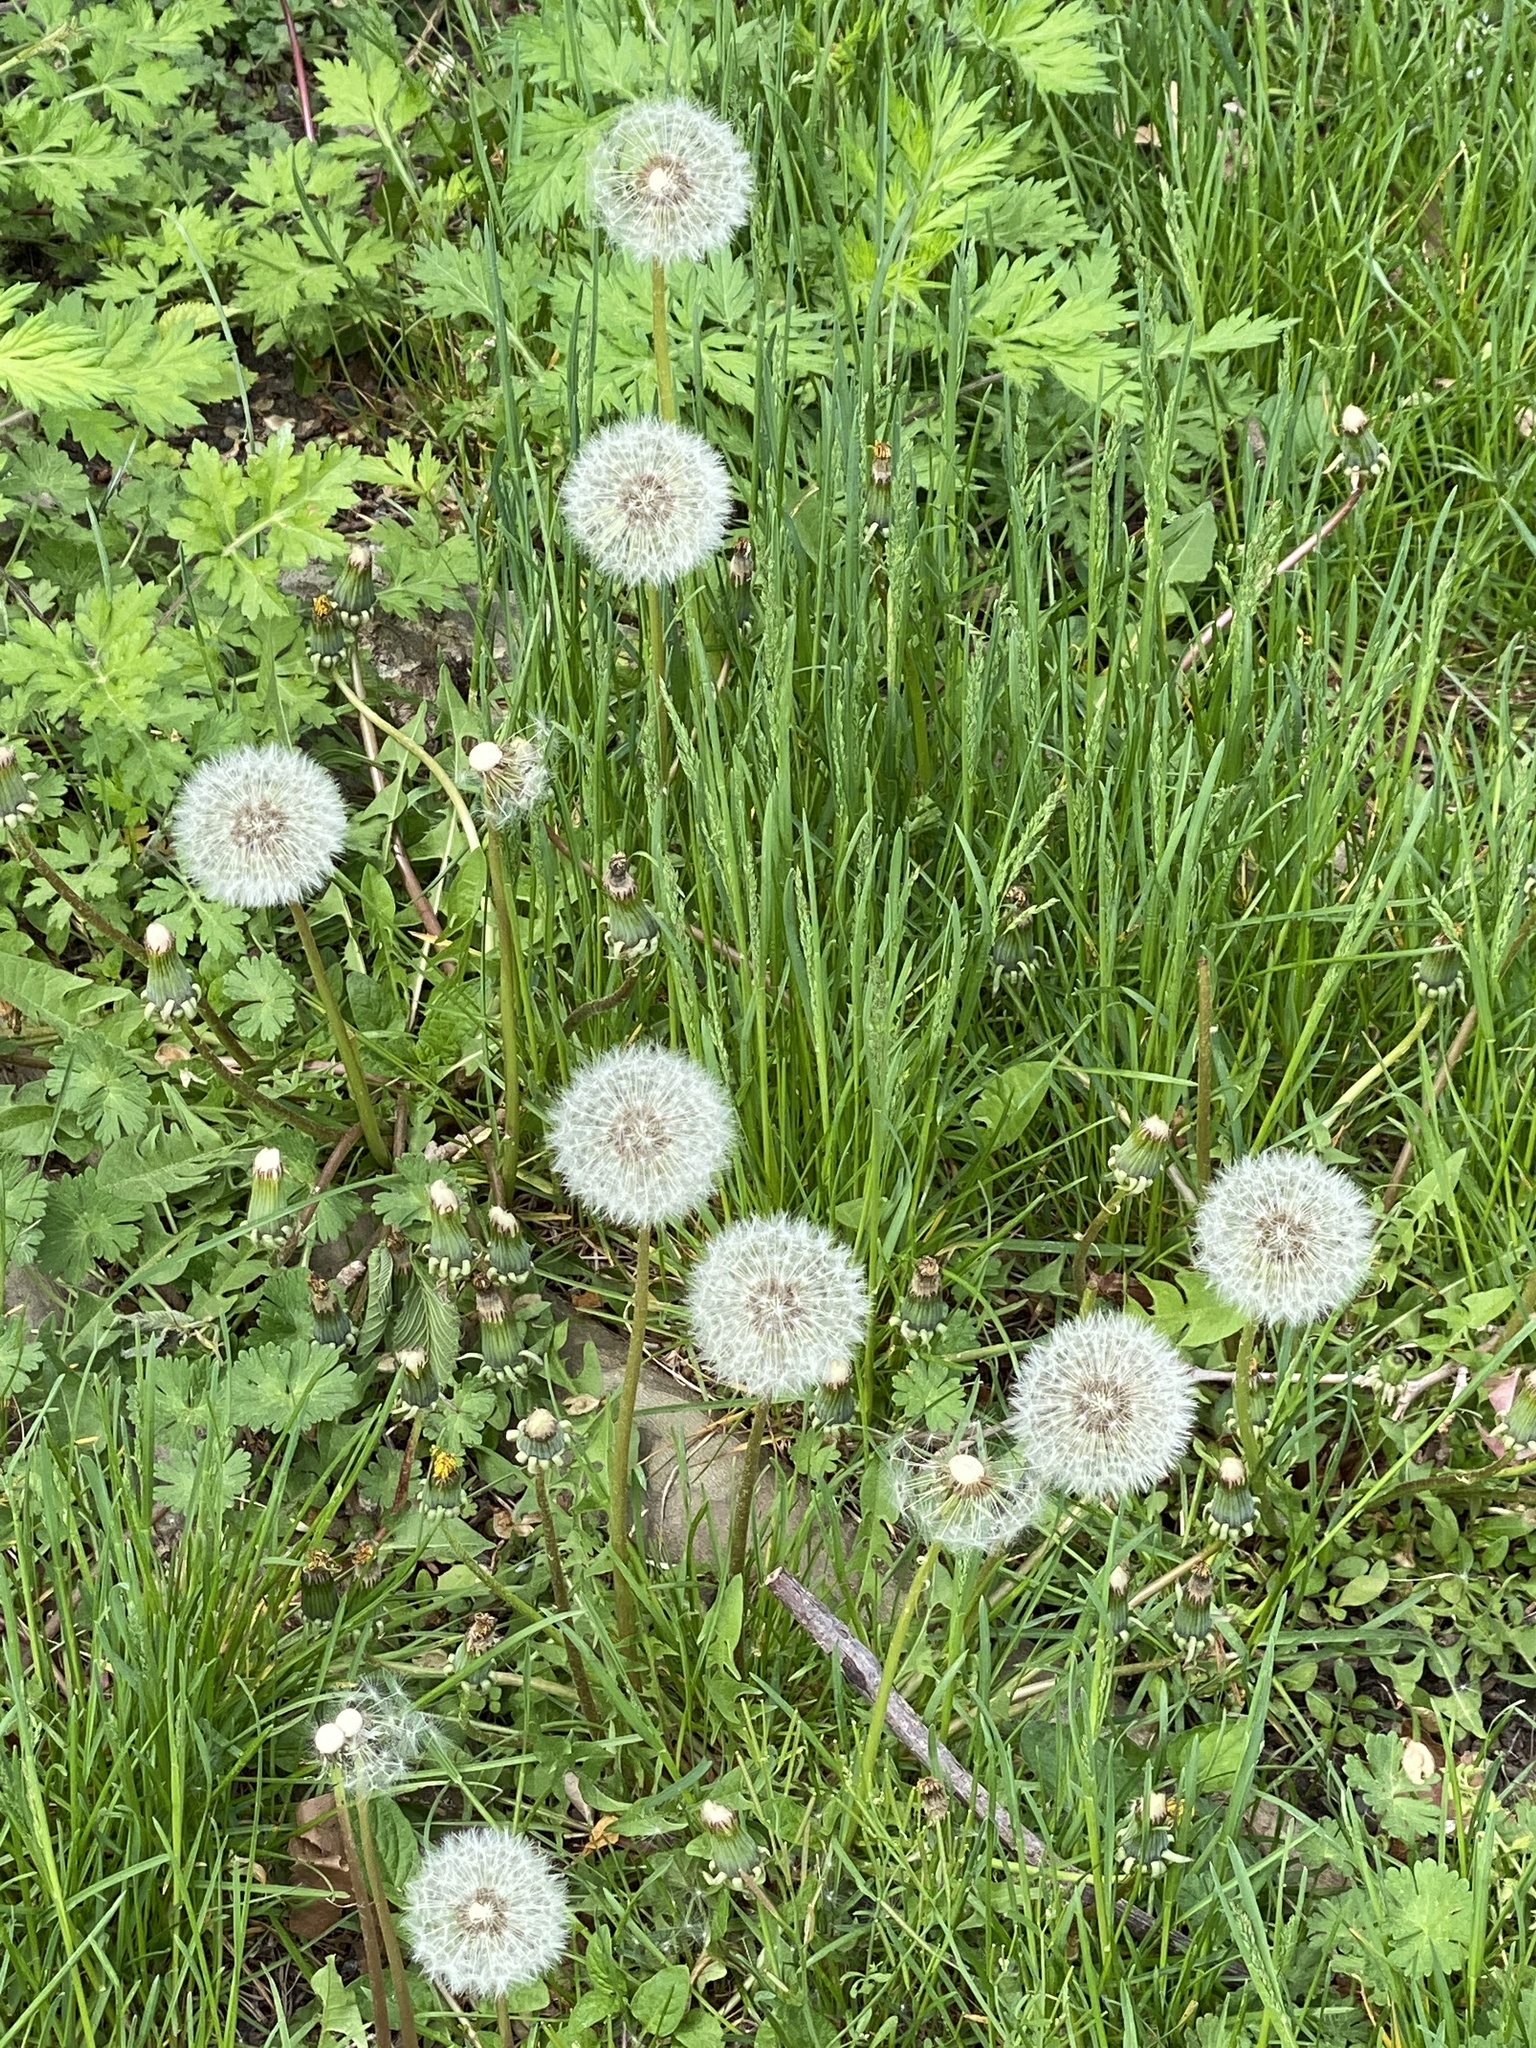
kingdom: Plantae
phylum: Tracheophyta
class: Magnoliopsida
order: Asterales
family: Asteraceae
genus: Taraxacum
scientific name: Taraxacum officinale
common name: Common dandelion
